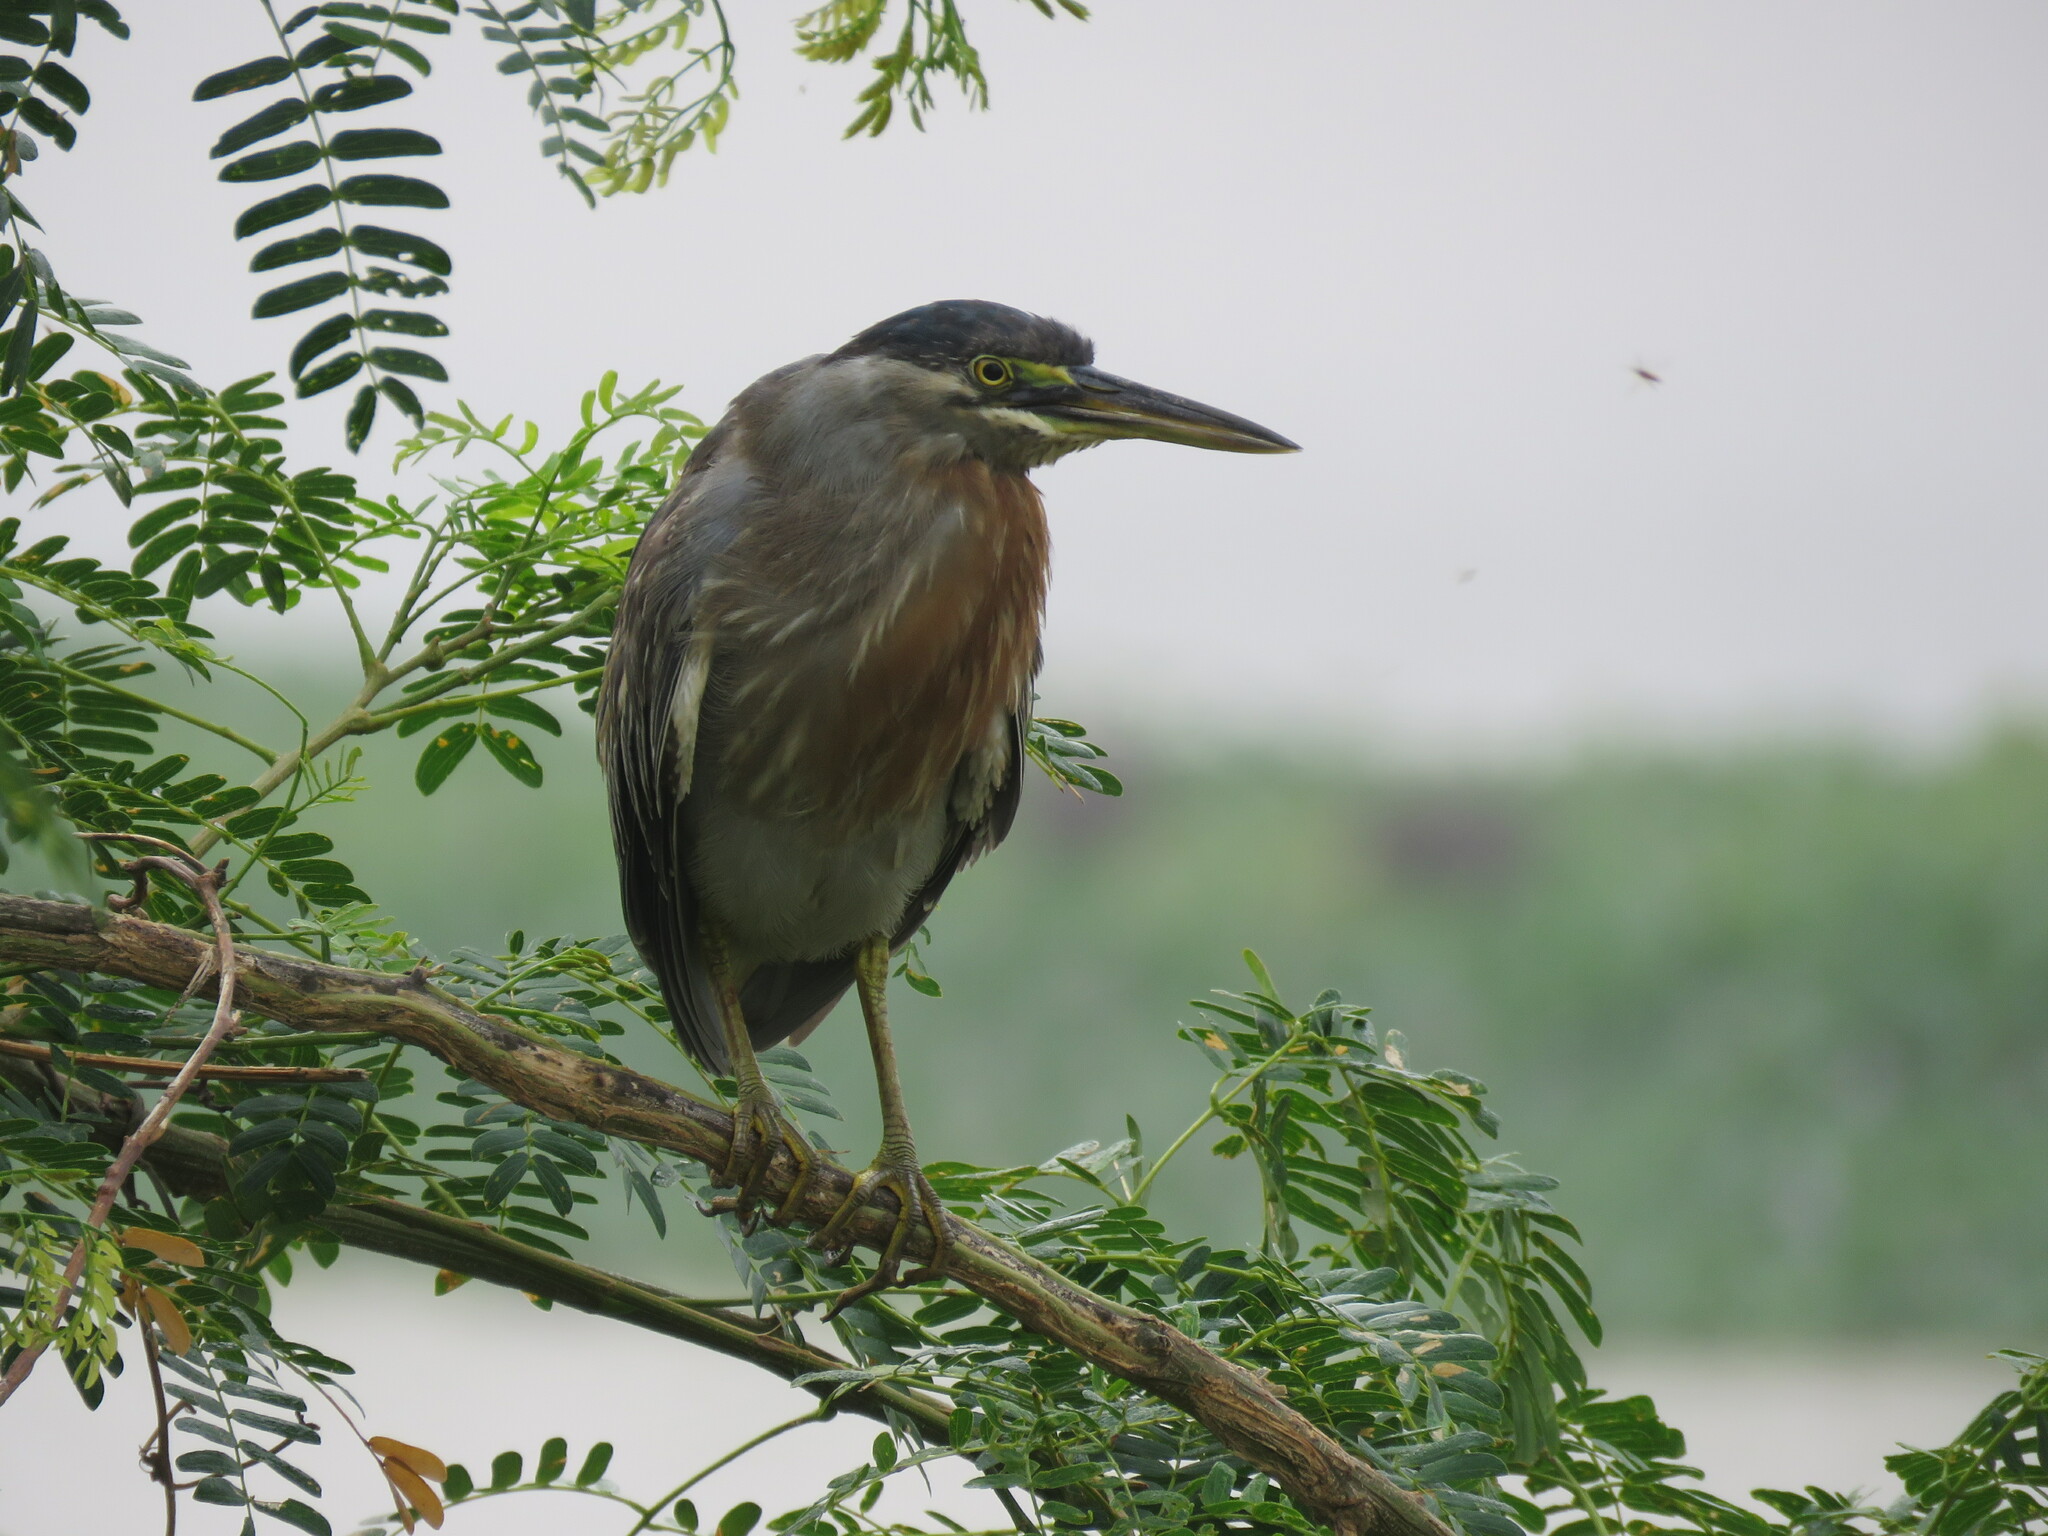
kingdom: Animalia
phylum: Chordata
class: Aves
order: Pelecaniformes
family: Ardeidae
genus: Butorides
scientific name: Butorides striata
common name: Striated heron
